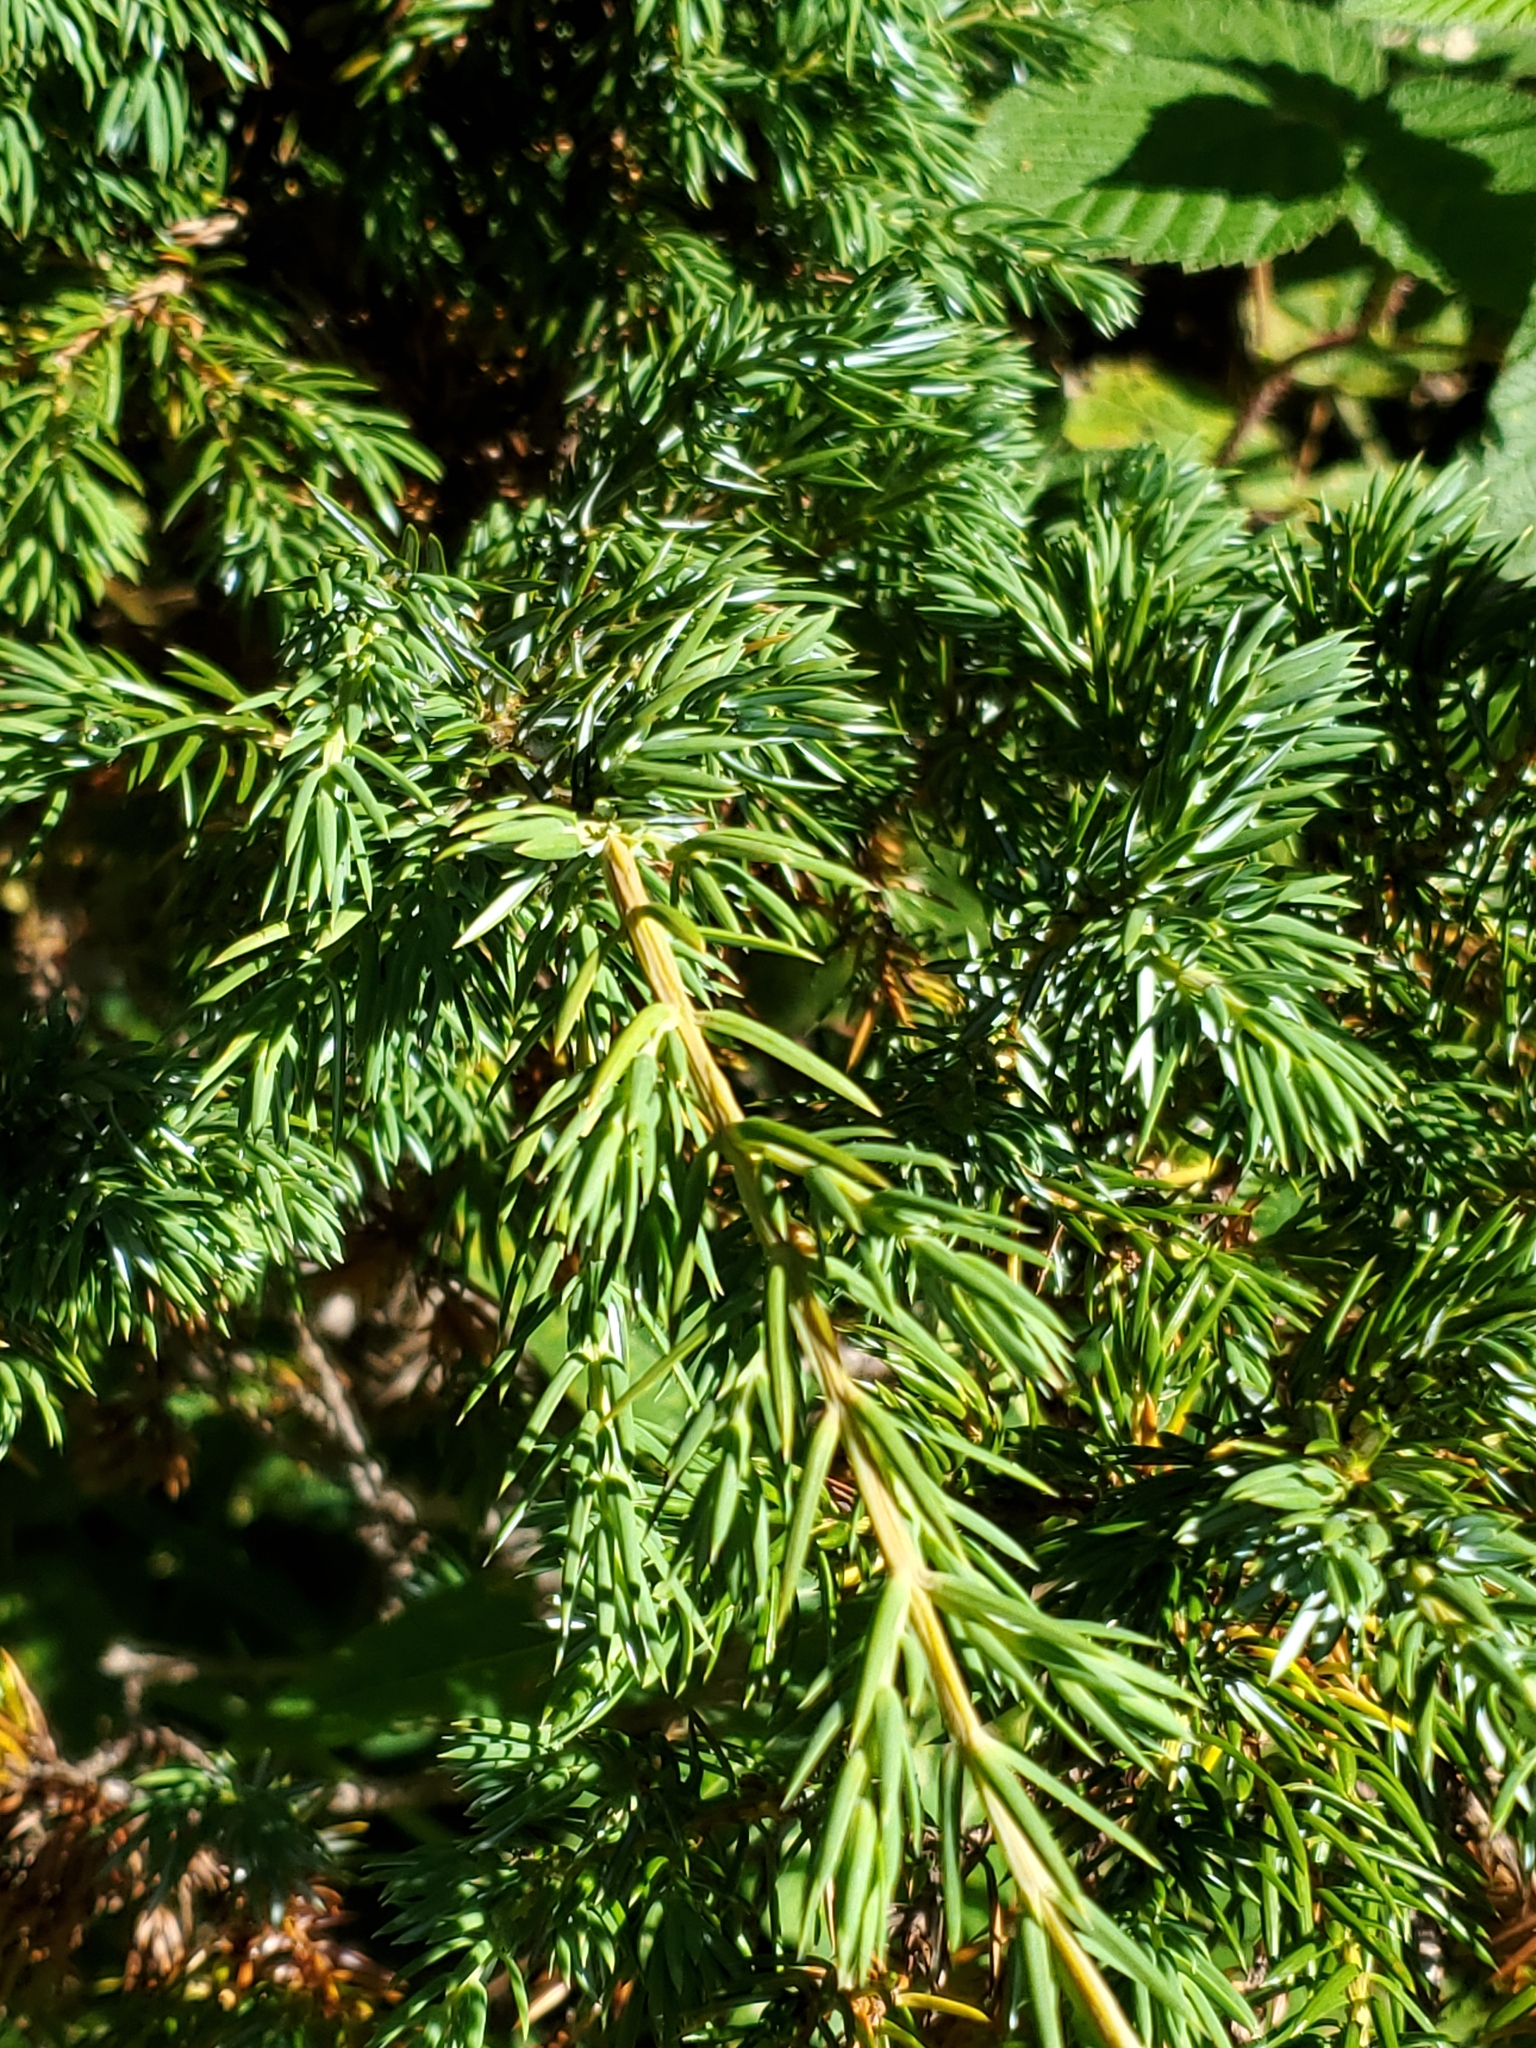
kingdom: Plantae
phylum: Tracheophyta
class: Pinopsida
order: Pinales
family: Cupressaceae
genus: Juniperus
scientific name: Juniperus communis
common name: Common juniper
